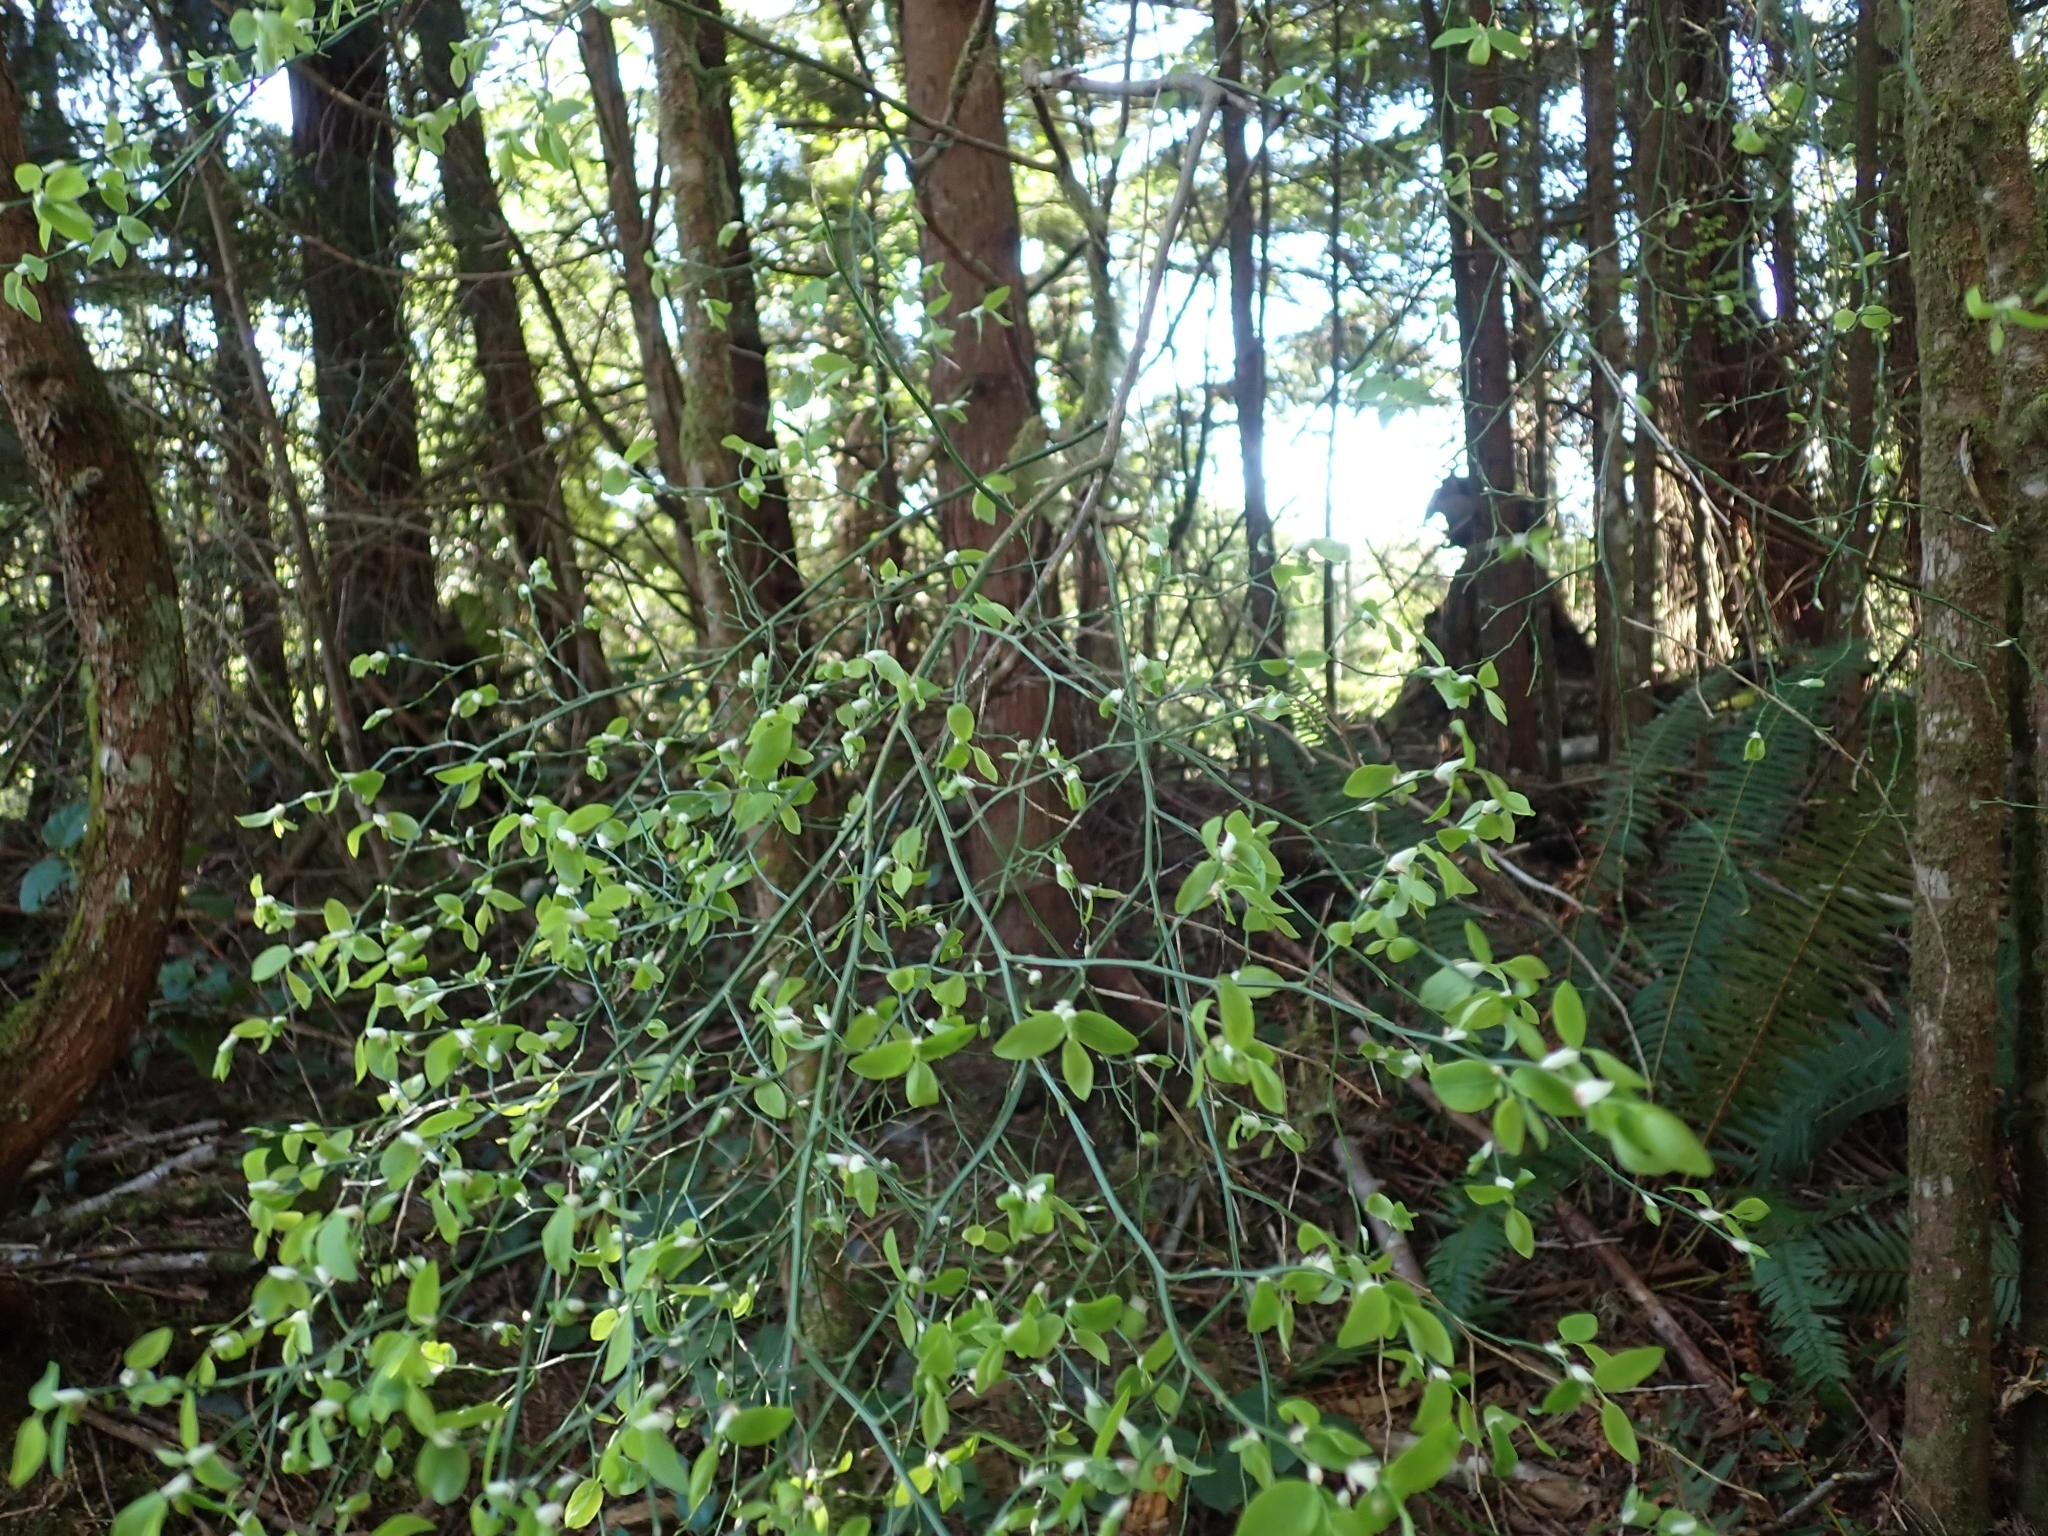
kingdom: Plantae
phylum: Tracheophyta
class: Magnoliopsida
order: Ericales
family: Ericaceae
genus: Vaccinium
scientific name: Vaccinium parvifolium
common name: Red-huckleberry
